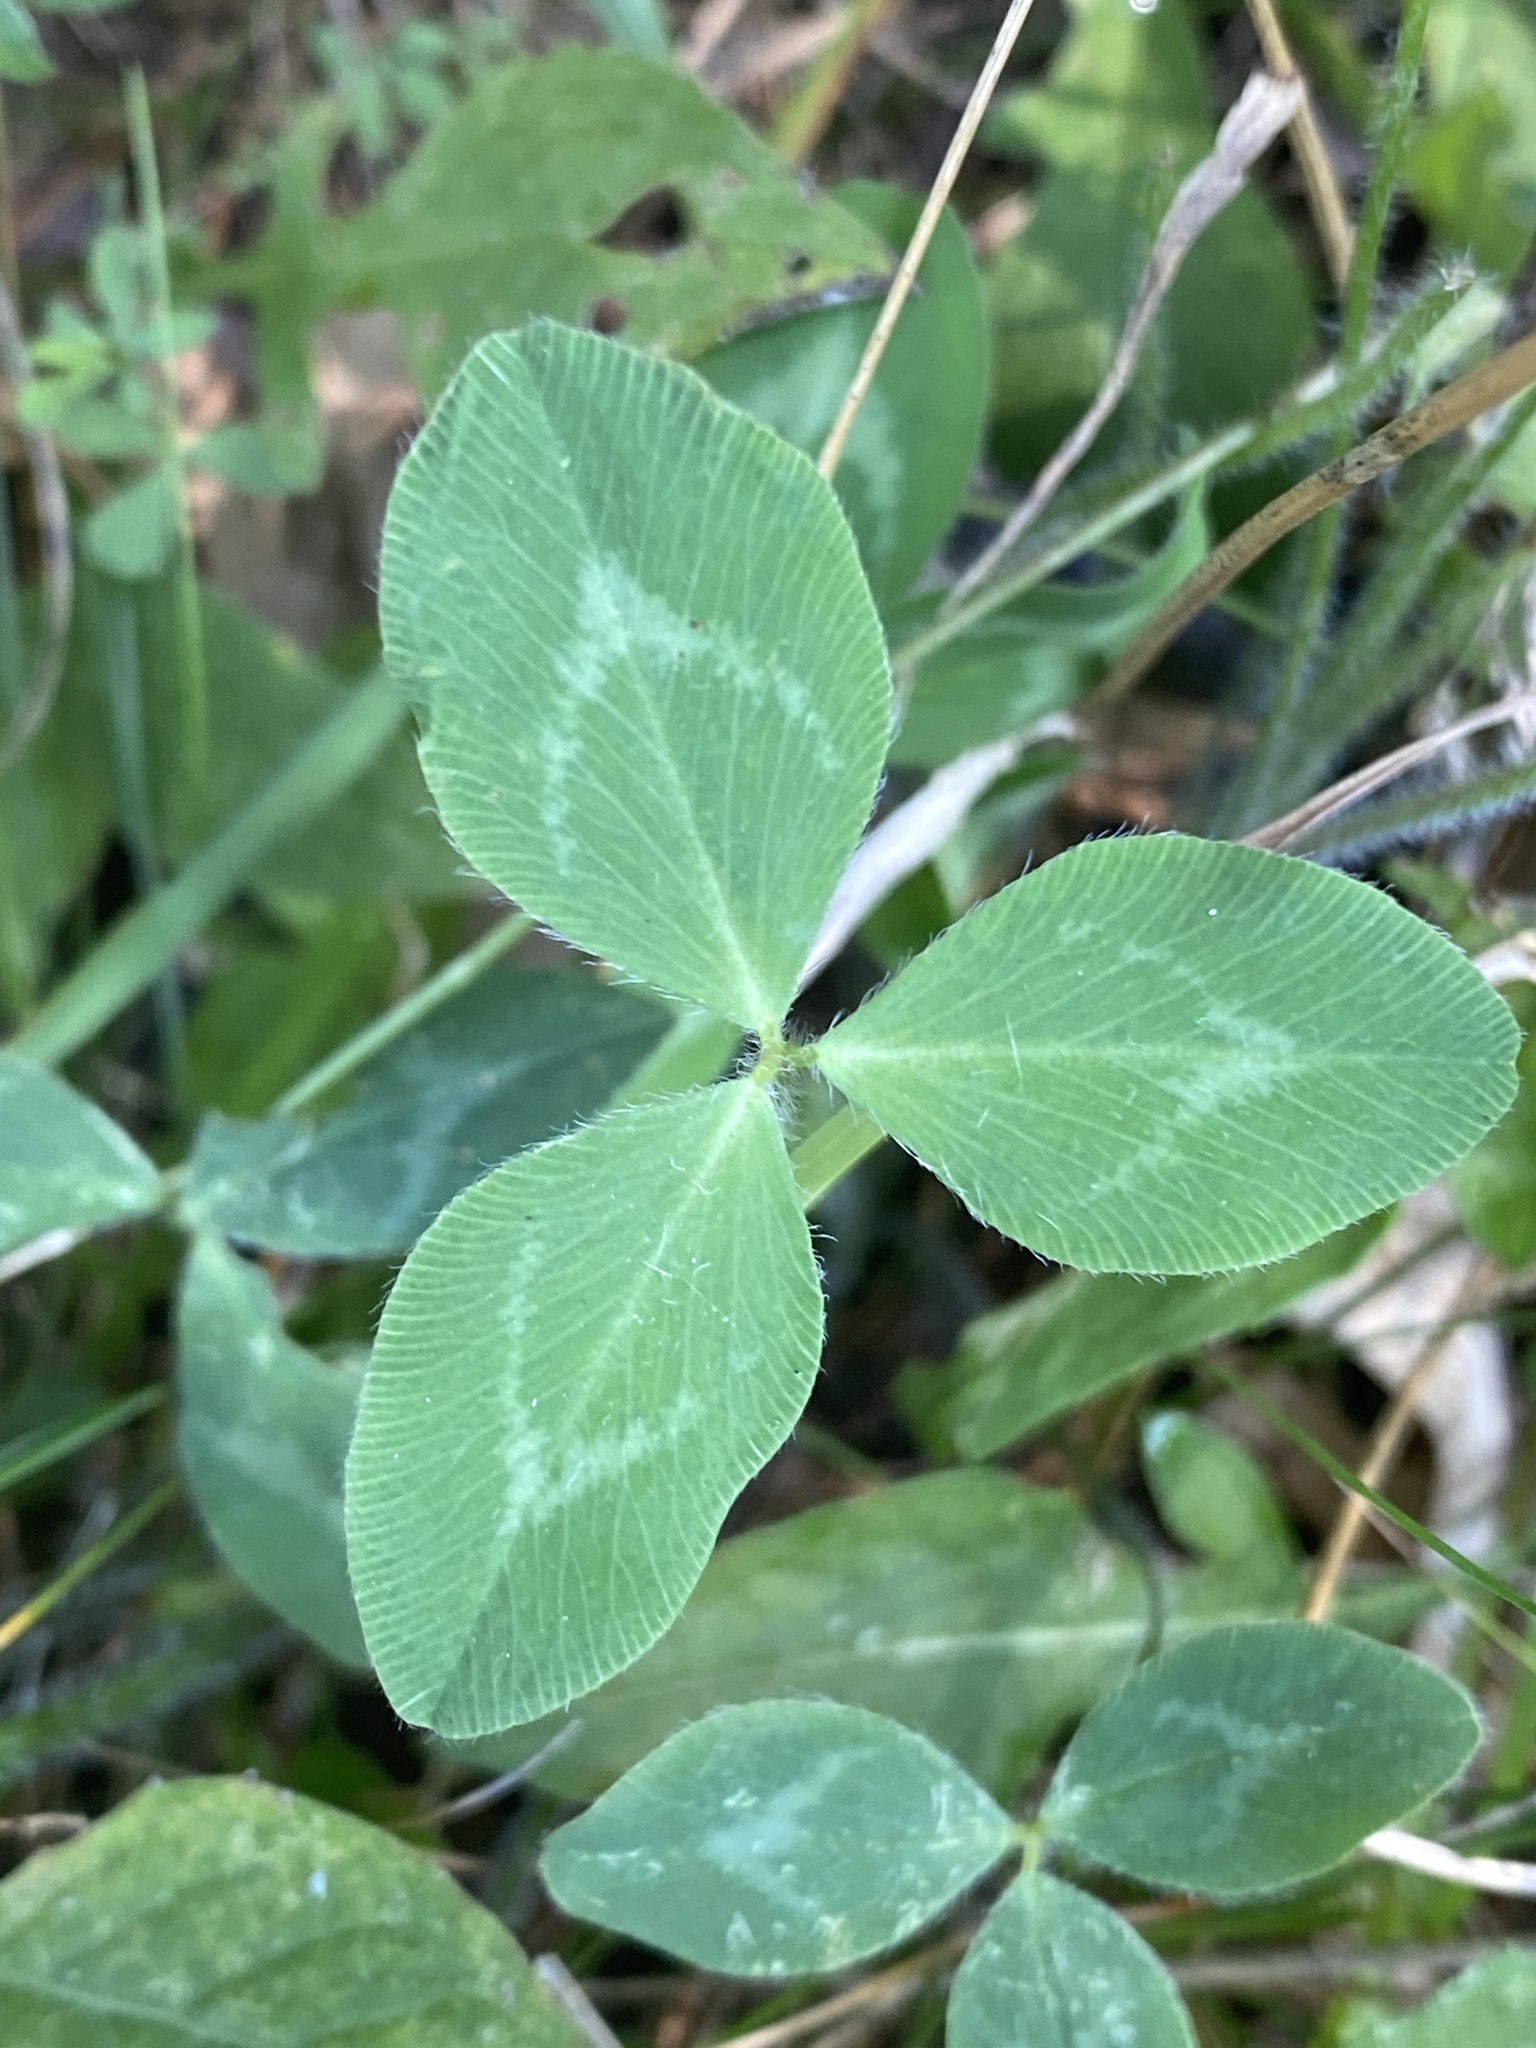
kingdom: Plantae
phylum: Tracheophyta
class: Magnoliopsida
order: Fabales
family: Fabaceae
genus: Trifolium
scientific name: Trifolium pratense
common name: Red clover
